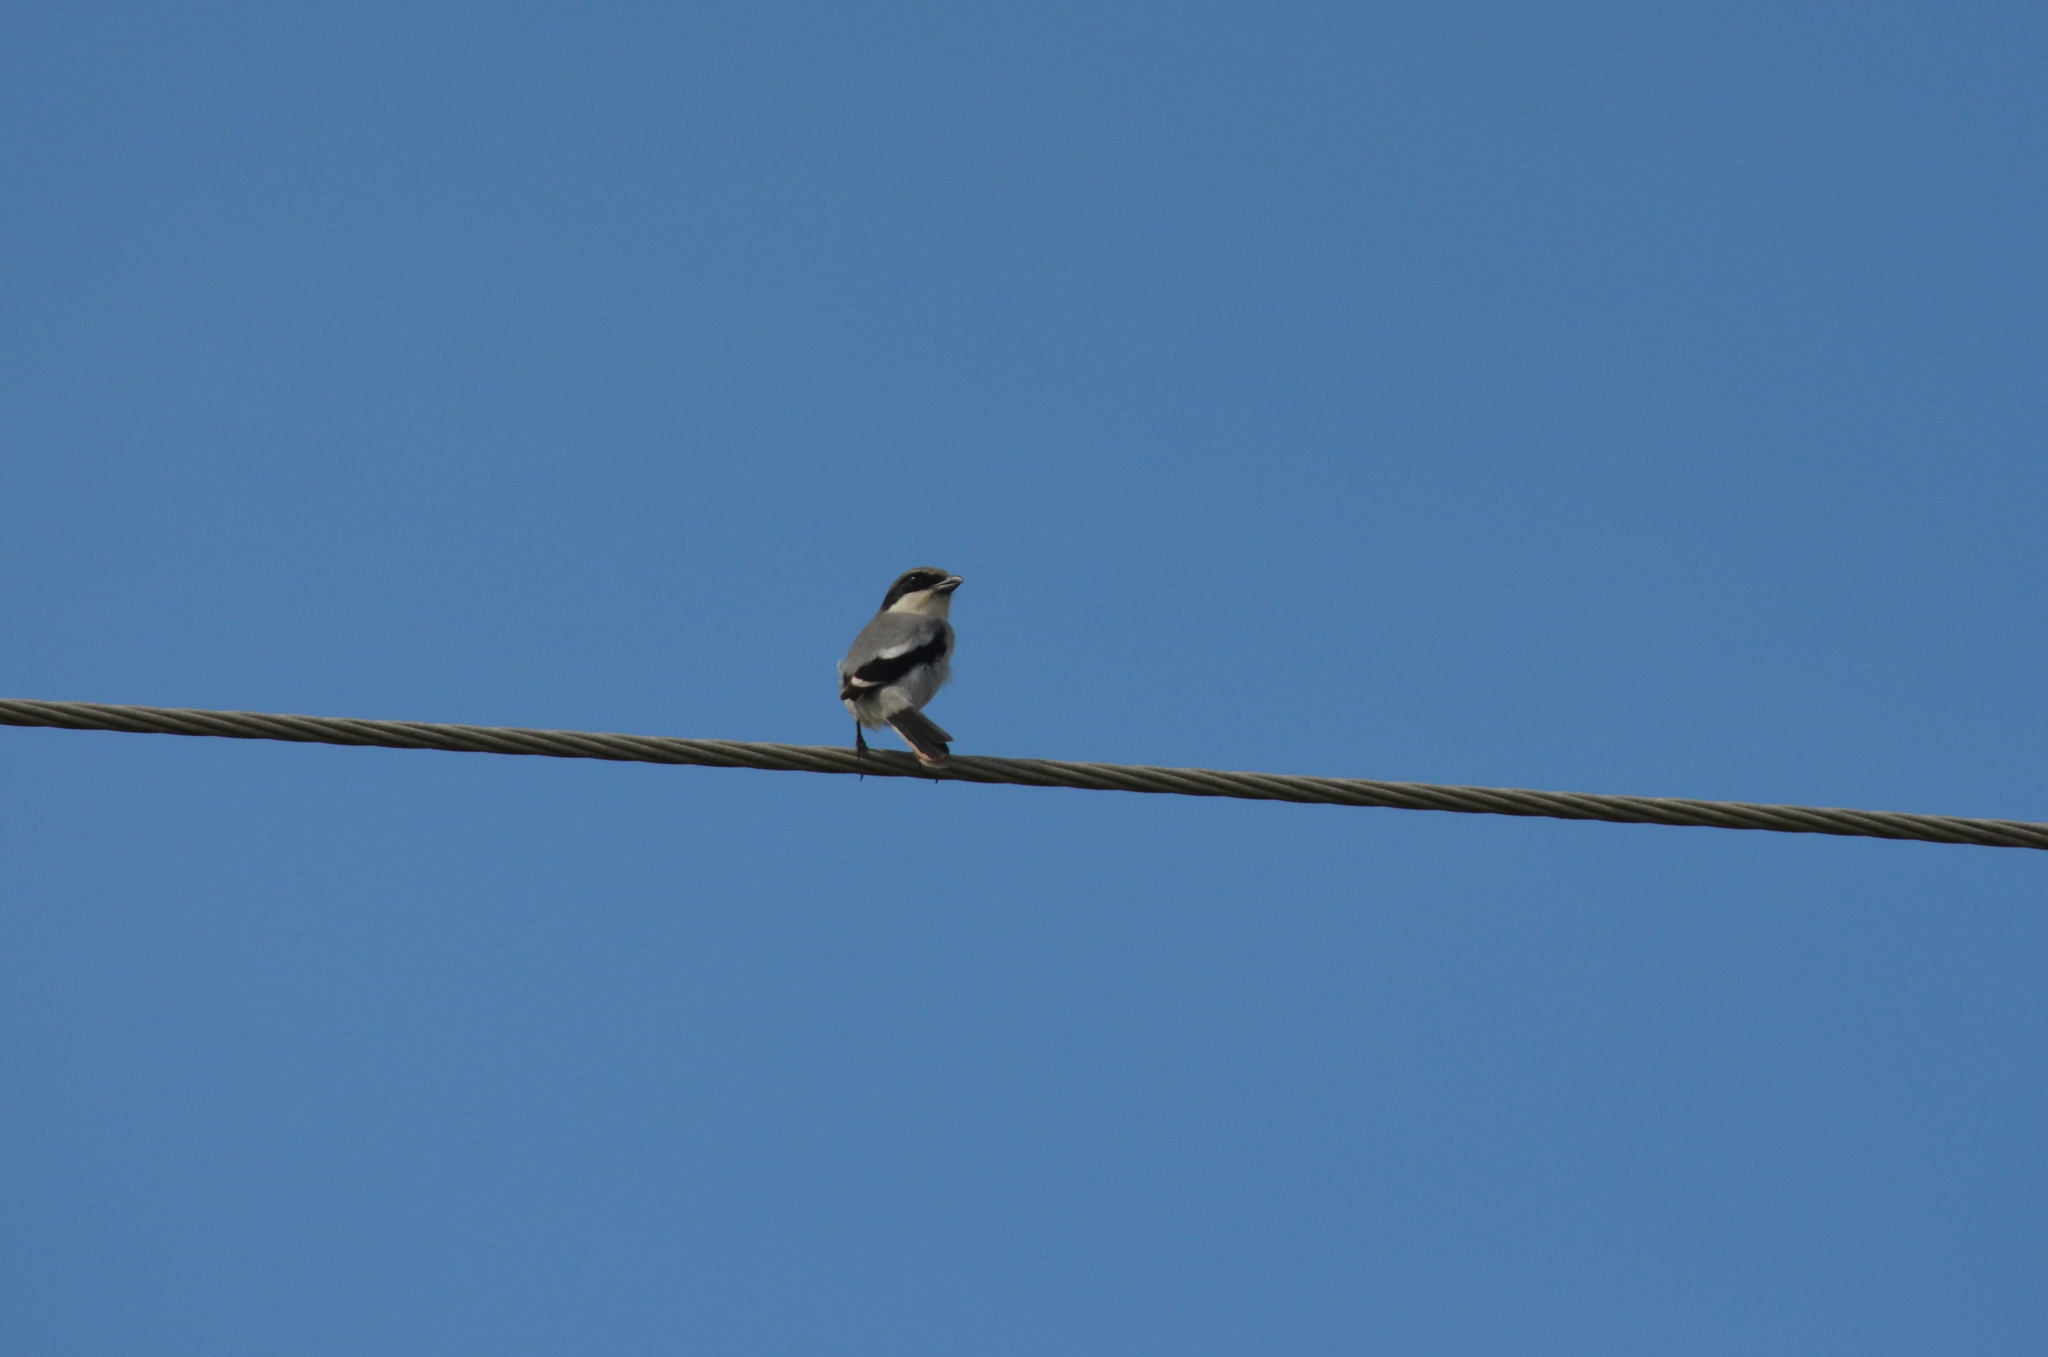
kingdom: Animalia
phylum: Chordata
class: Aves
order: Passeriformes
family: Laniidae
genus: Lanius
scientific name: Lanius ludovicianus
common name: Loggerhead shrike
